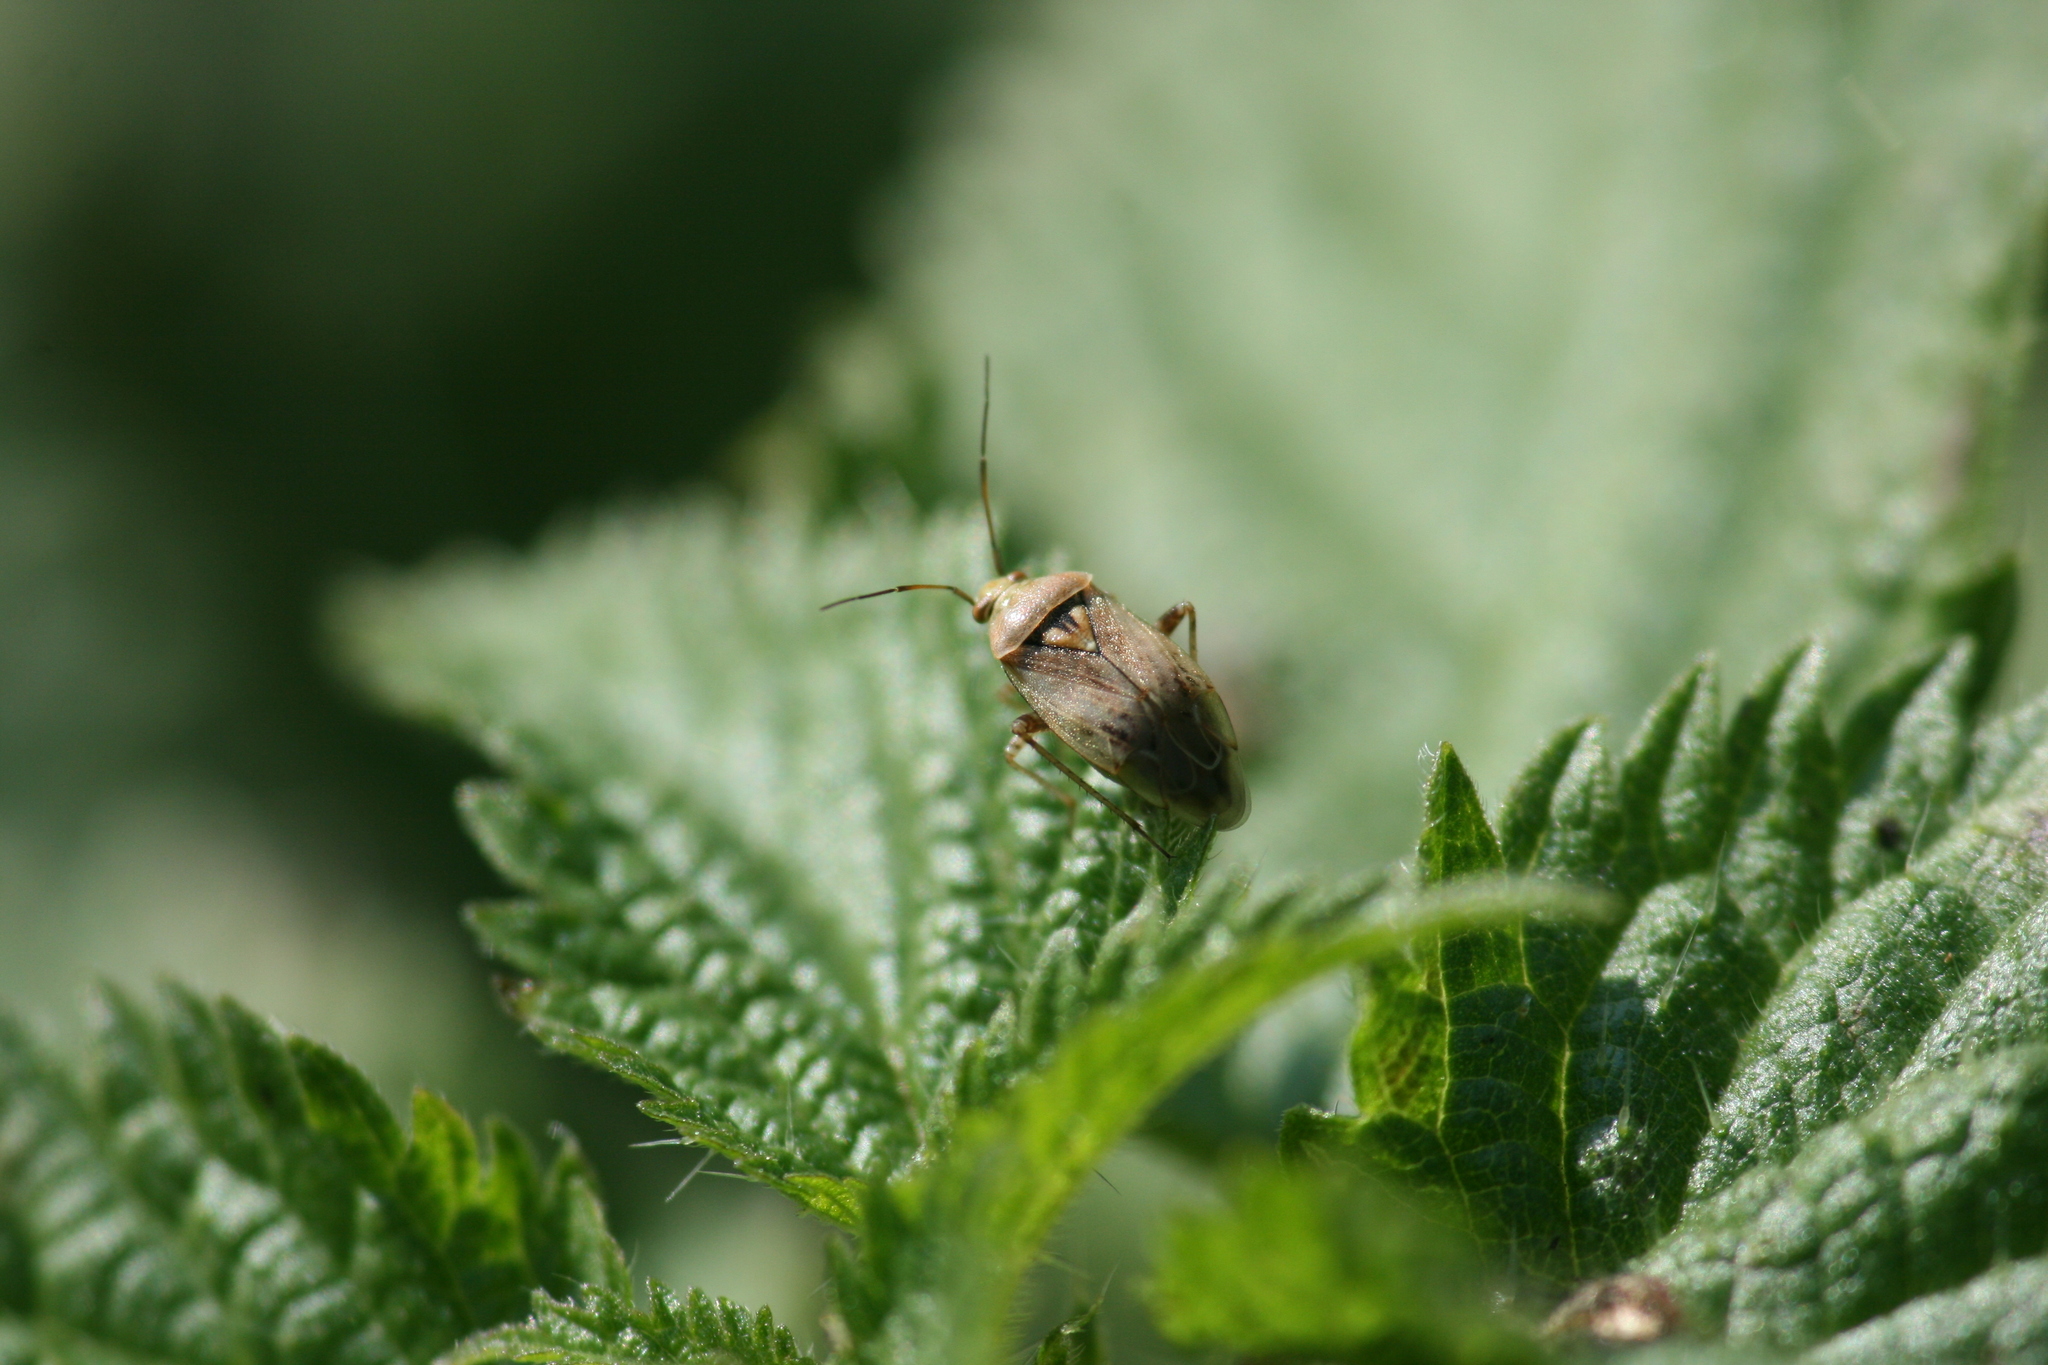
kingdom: Animalia
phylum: Arthropoda
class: Insecta
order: Hemiptera
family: Miridae
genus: Lygus
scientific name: Lygus rugulipennis
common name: European tarnished plant bug
